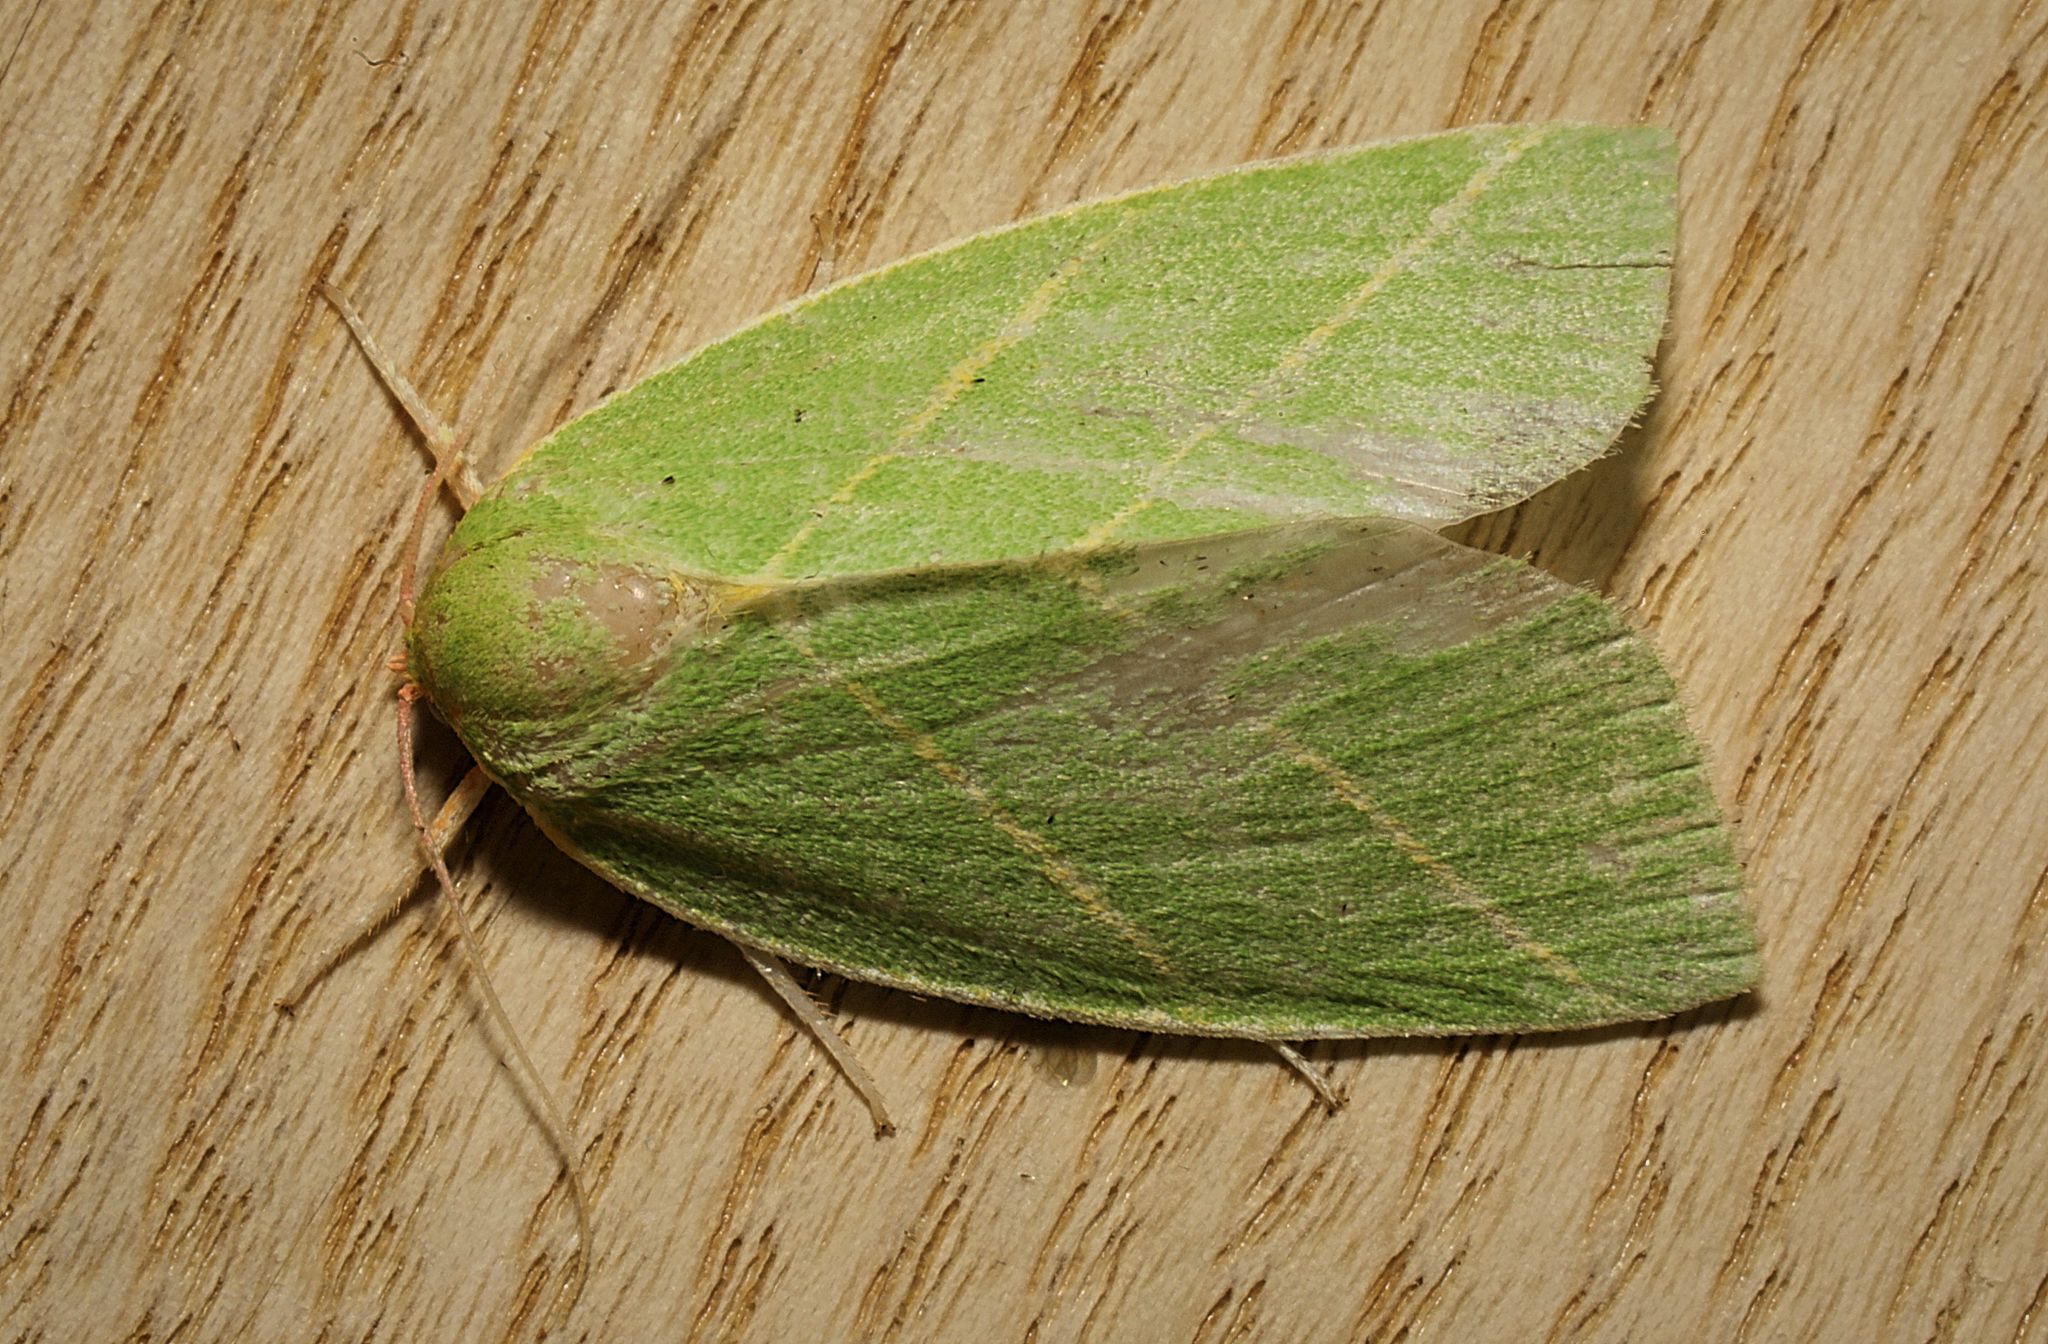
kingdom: Animalia
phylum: Arthropoda
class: Insecta
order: Lepidoptera
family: Nolidae
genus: Bena
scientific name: Bena bicolorana
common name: Scarce silver-lines
